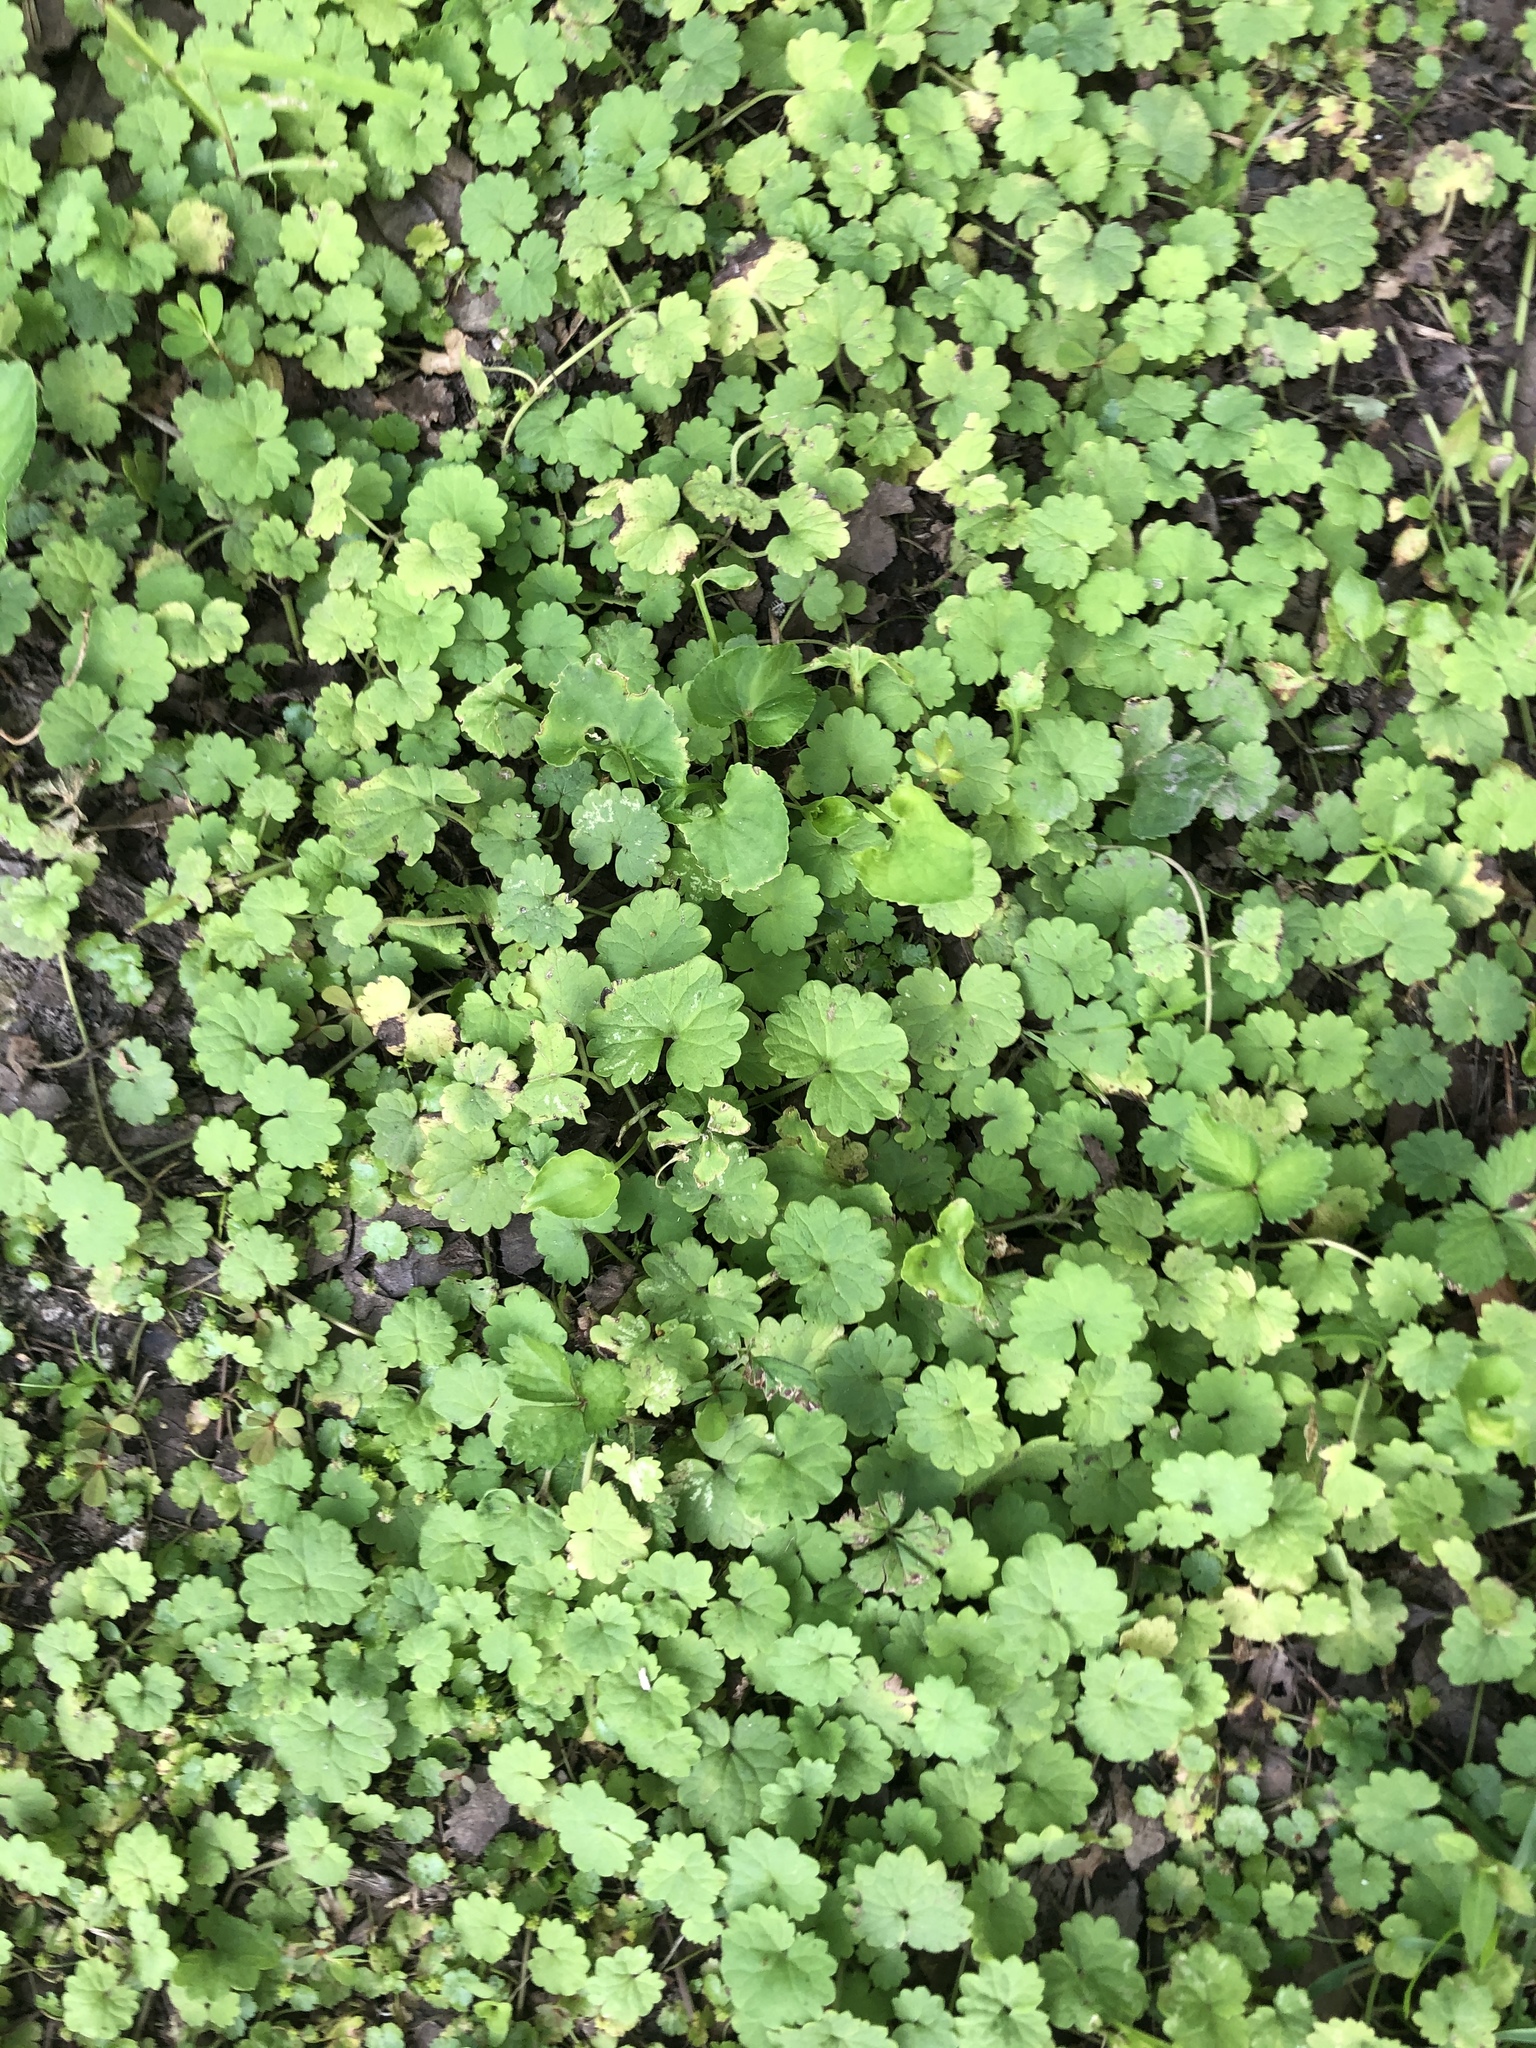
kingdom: Plantae
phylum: Tracheophyta
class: Magnoliopsida
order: Lamiales
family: Lamiaceae
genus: Glechoma
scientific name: Glechoma hederacea
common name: Ground ivy
